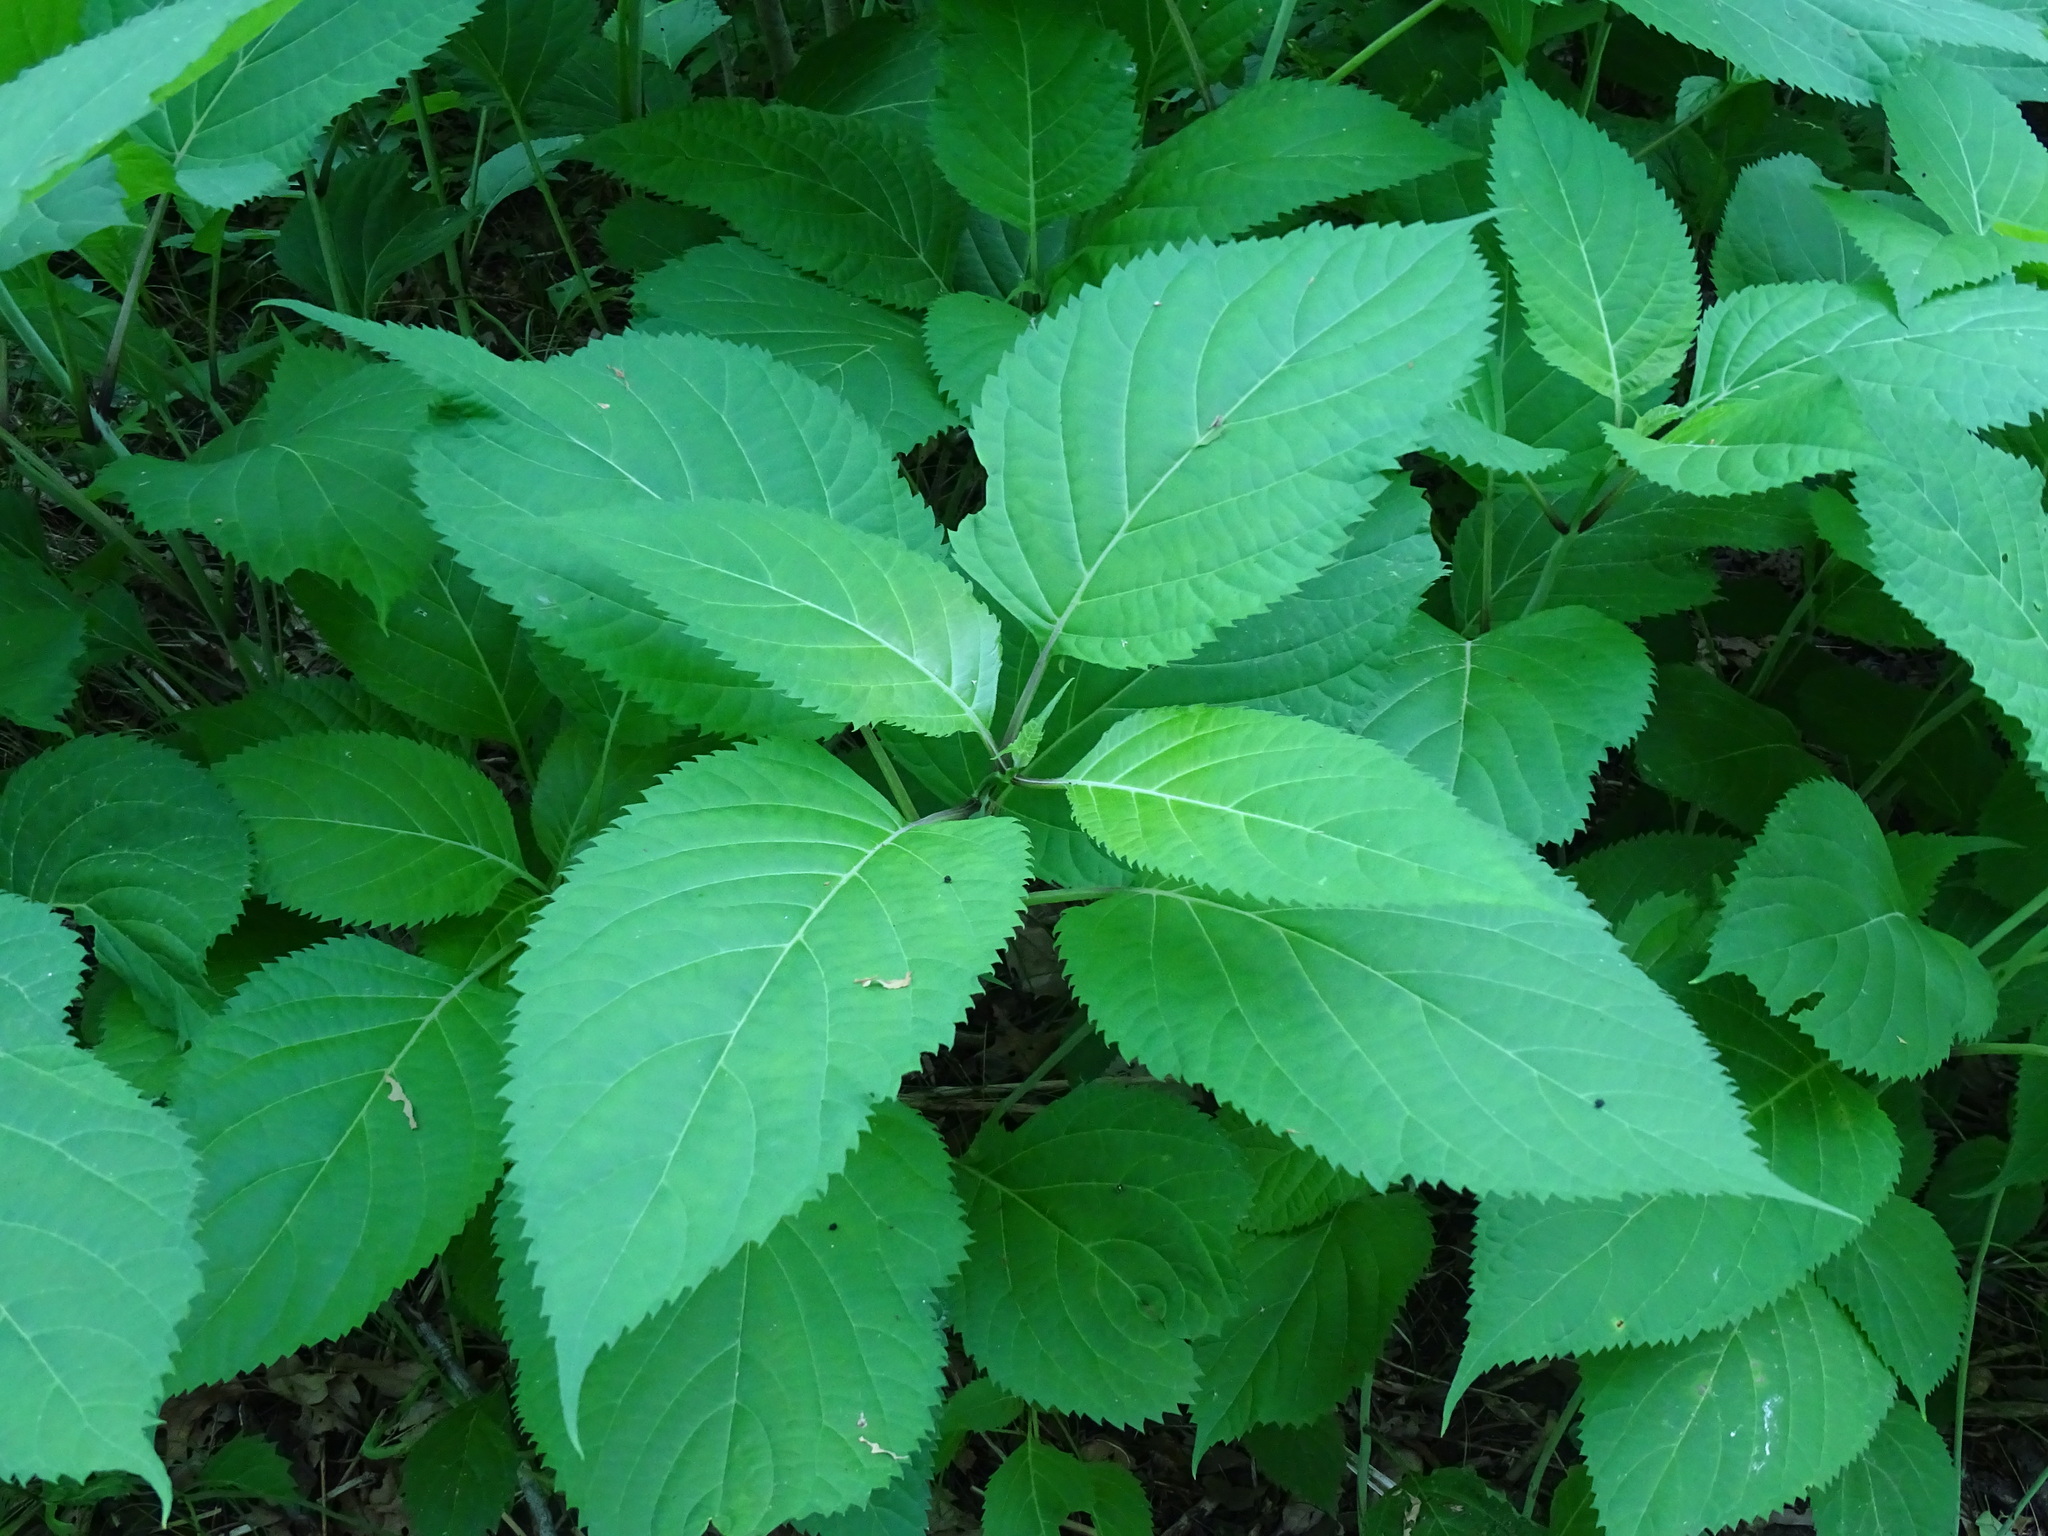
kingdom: Plantae
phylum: Tracheophyta
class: Magnoliopsida
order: Lamiales
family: Lamiaceae
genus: Collinsonia
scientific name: Collinsonia canadensis
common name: Northern horsebalm
